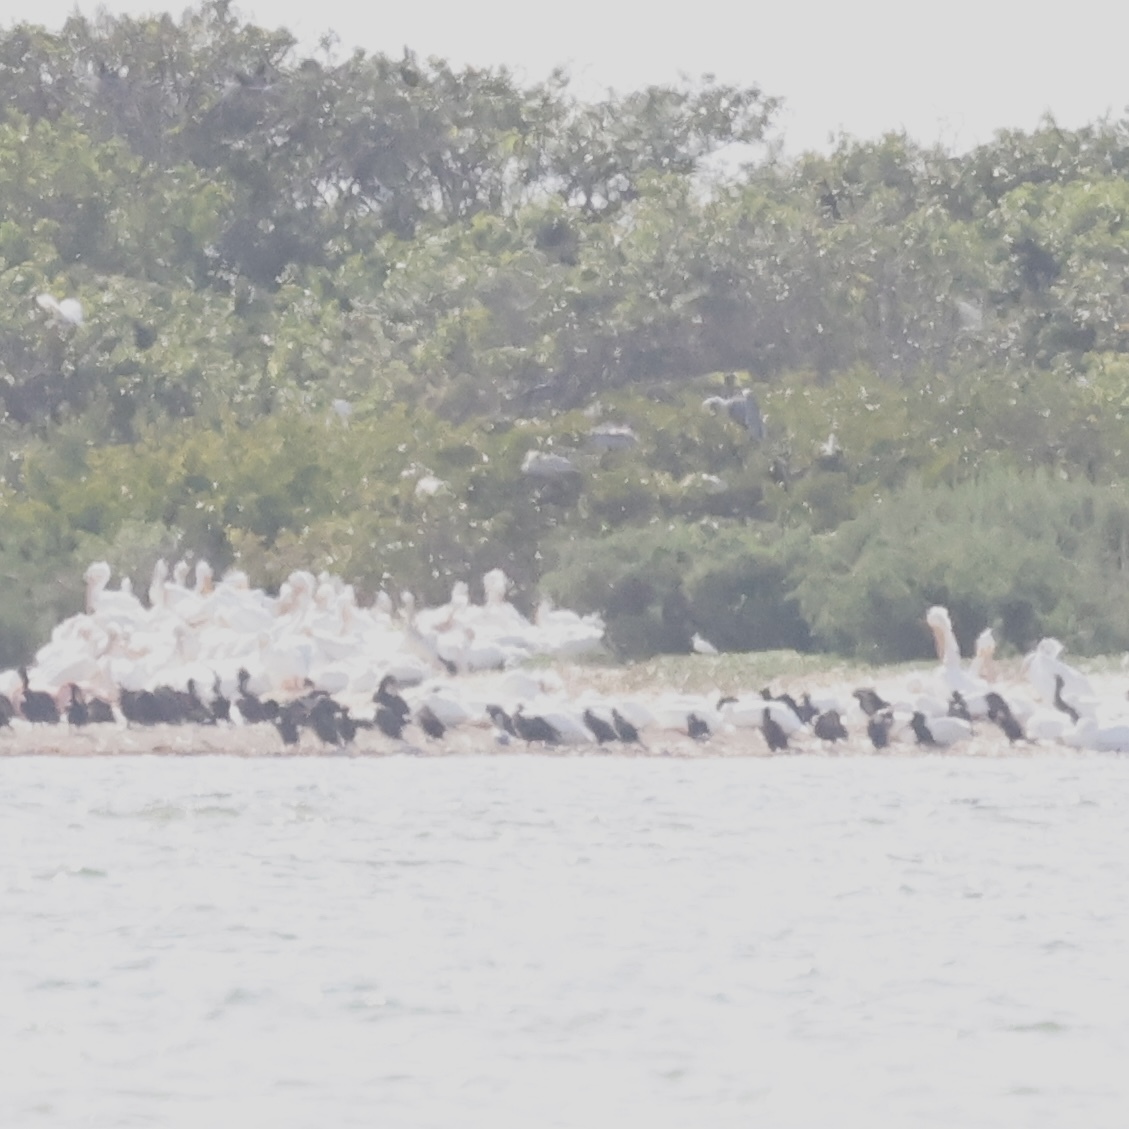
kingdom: Animalia
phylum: Chordata
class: Aves
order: Pelecaniformes
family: Pelecanidae
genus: Pelecanus
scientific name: Pelecanus erythrorhynchos
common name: American white pelican
